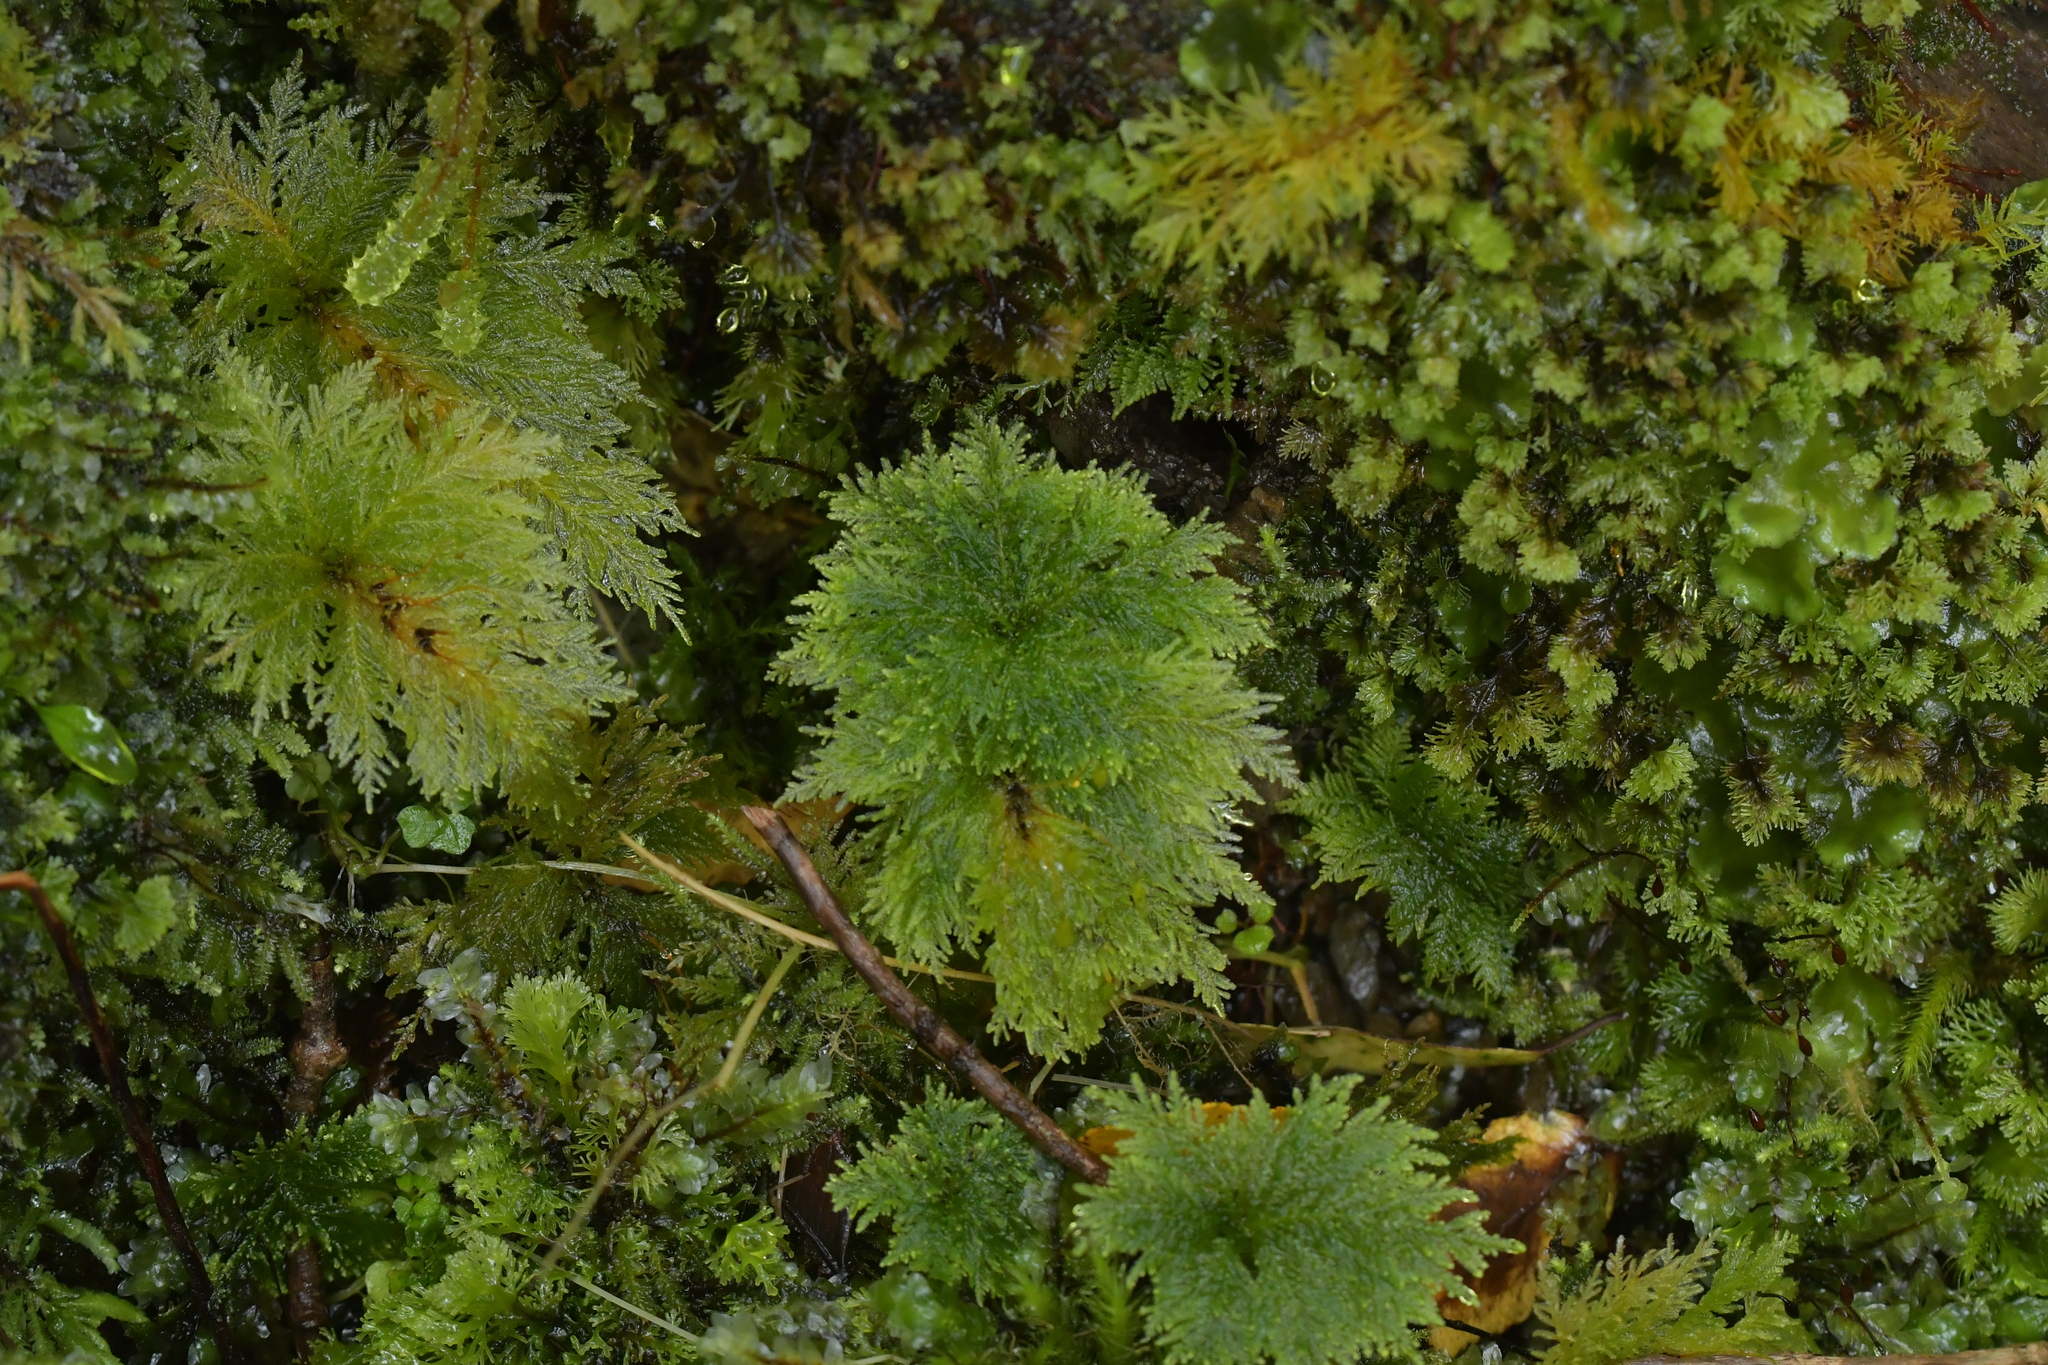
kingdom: Plantae
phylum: Bryophyta
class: Bryopsida
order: Hypopterygiales
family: Hypopterygiaceae
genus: Dendrohypopterygium
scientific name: Dendrohypopterygium filiculiforme
